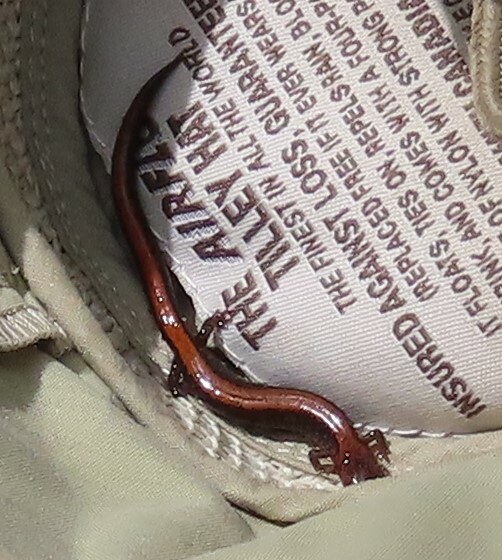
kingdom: Animalia
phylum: Chordata
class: Amphibia
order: Caudata
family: Plethodontidae
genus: Plethodon
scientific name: Plethodon cinereus
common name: Redback salamander
